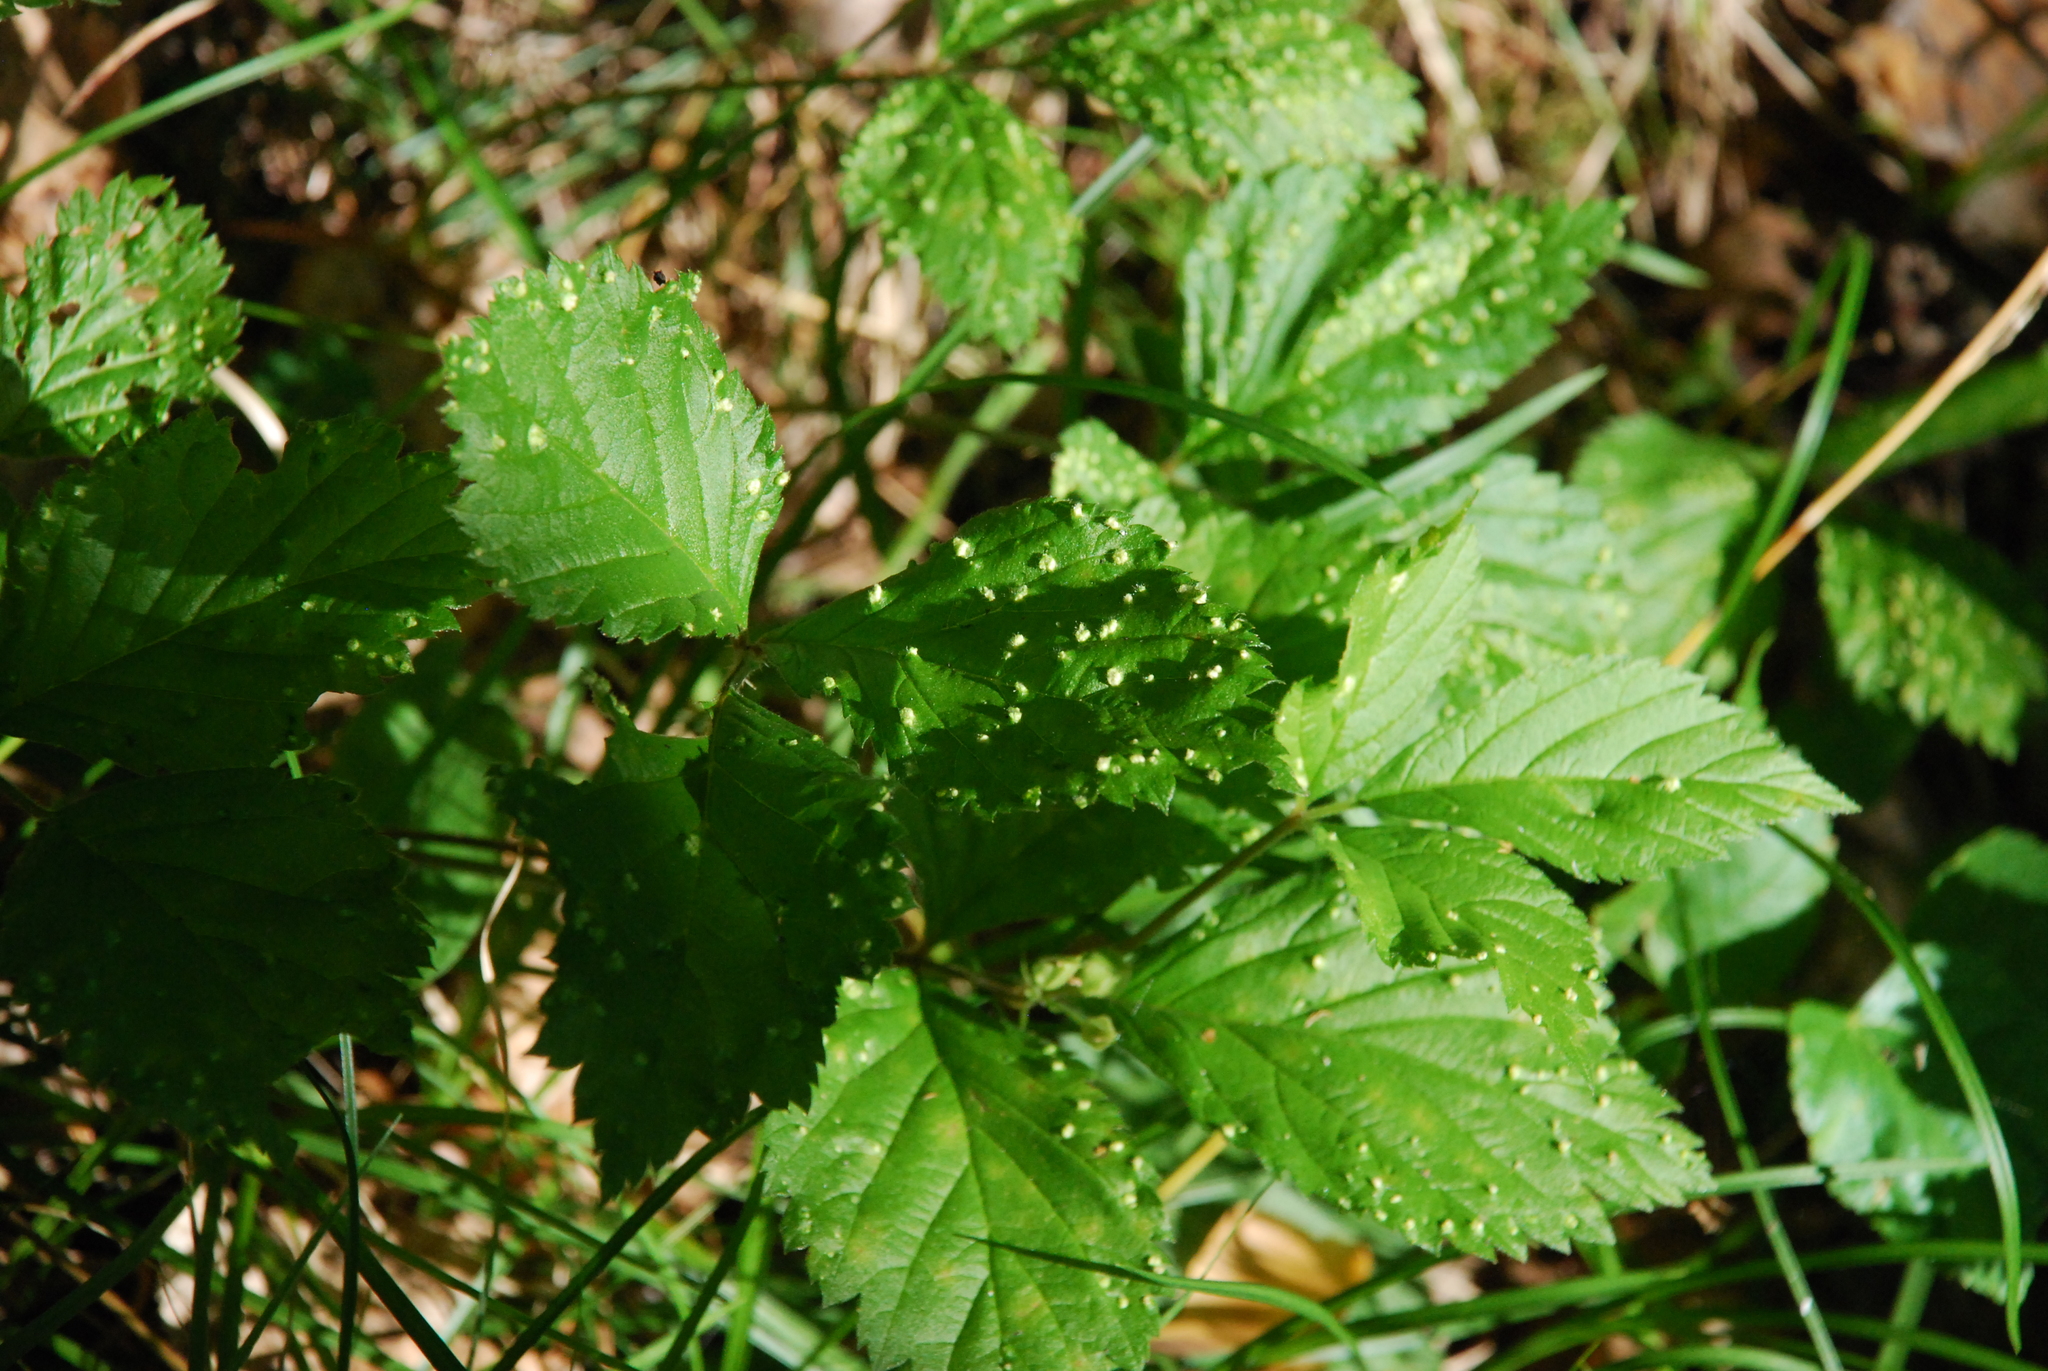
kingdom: Plantae
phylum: Tracheophyta
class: Magnoliopsida
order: Rosales
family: Rosaceae
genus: Rubus
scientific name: Rubus saxatilis
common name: Stone bramble
